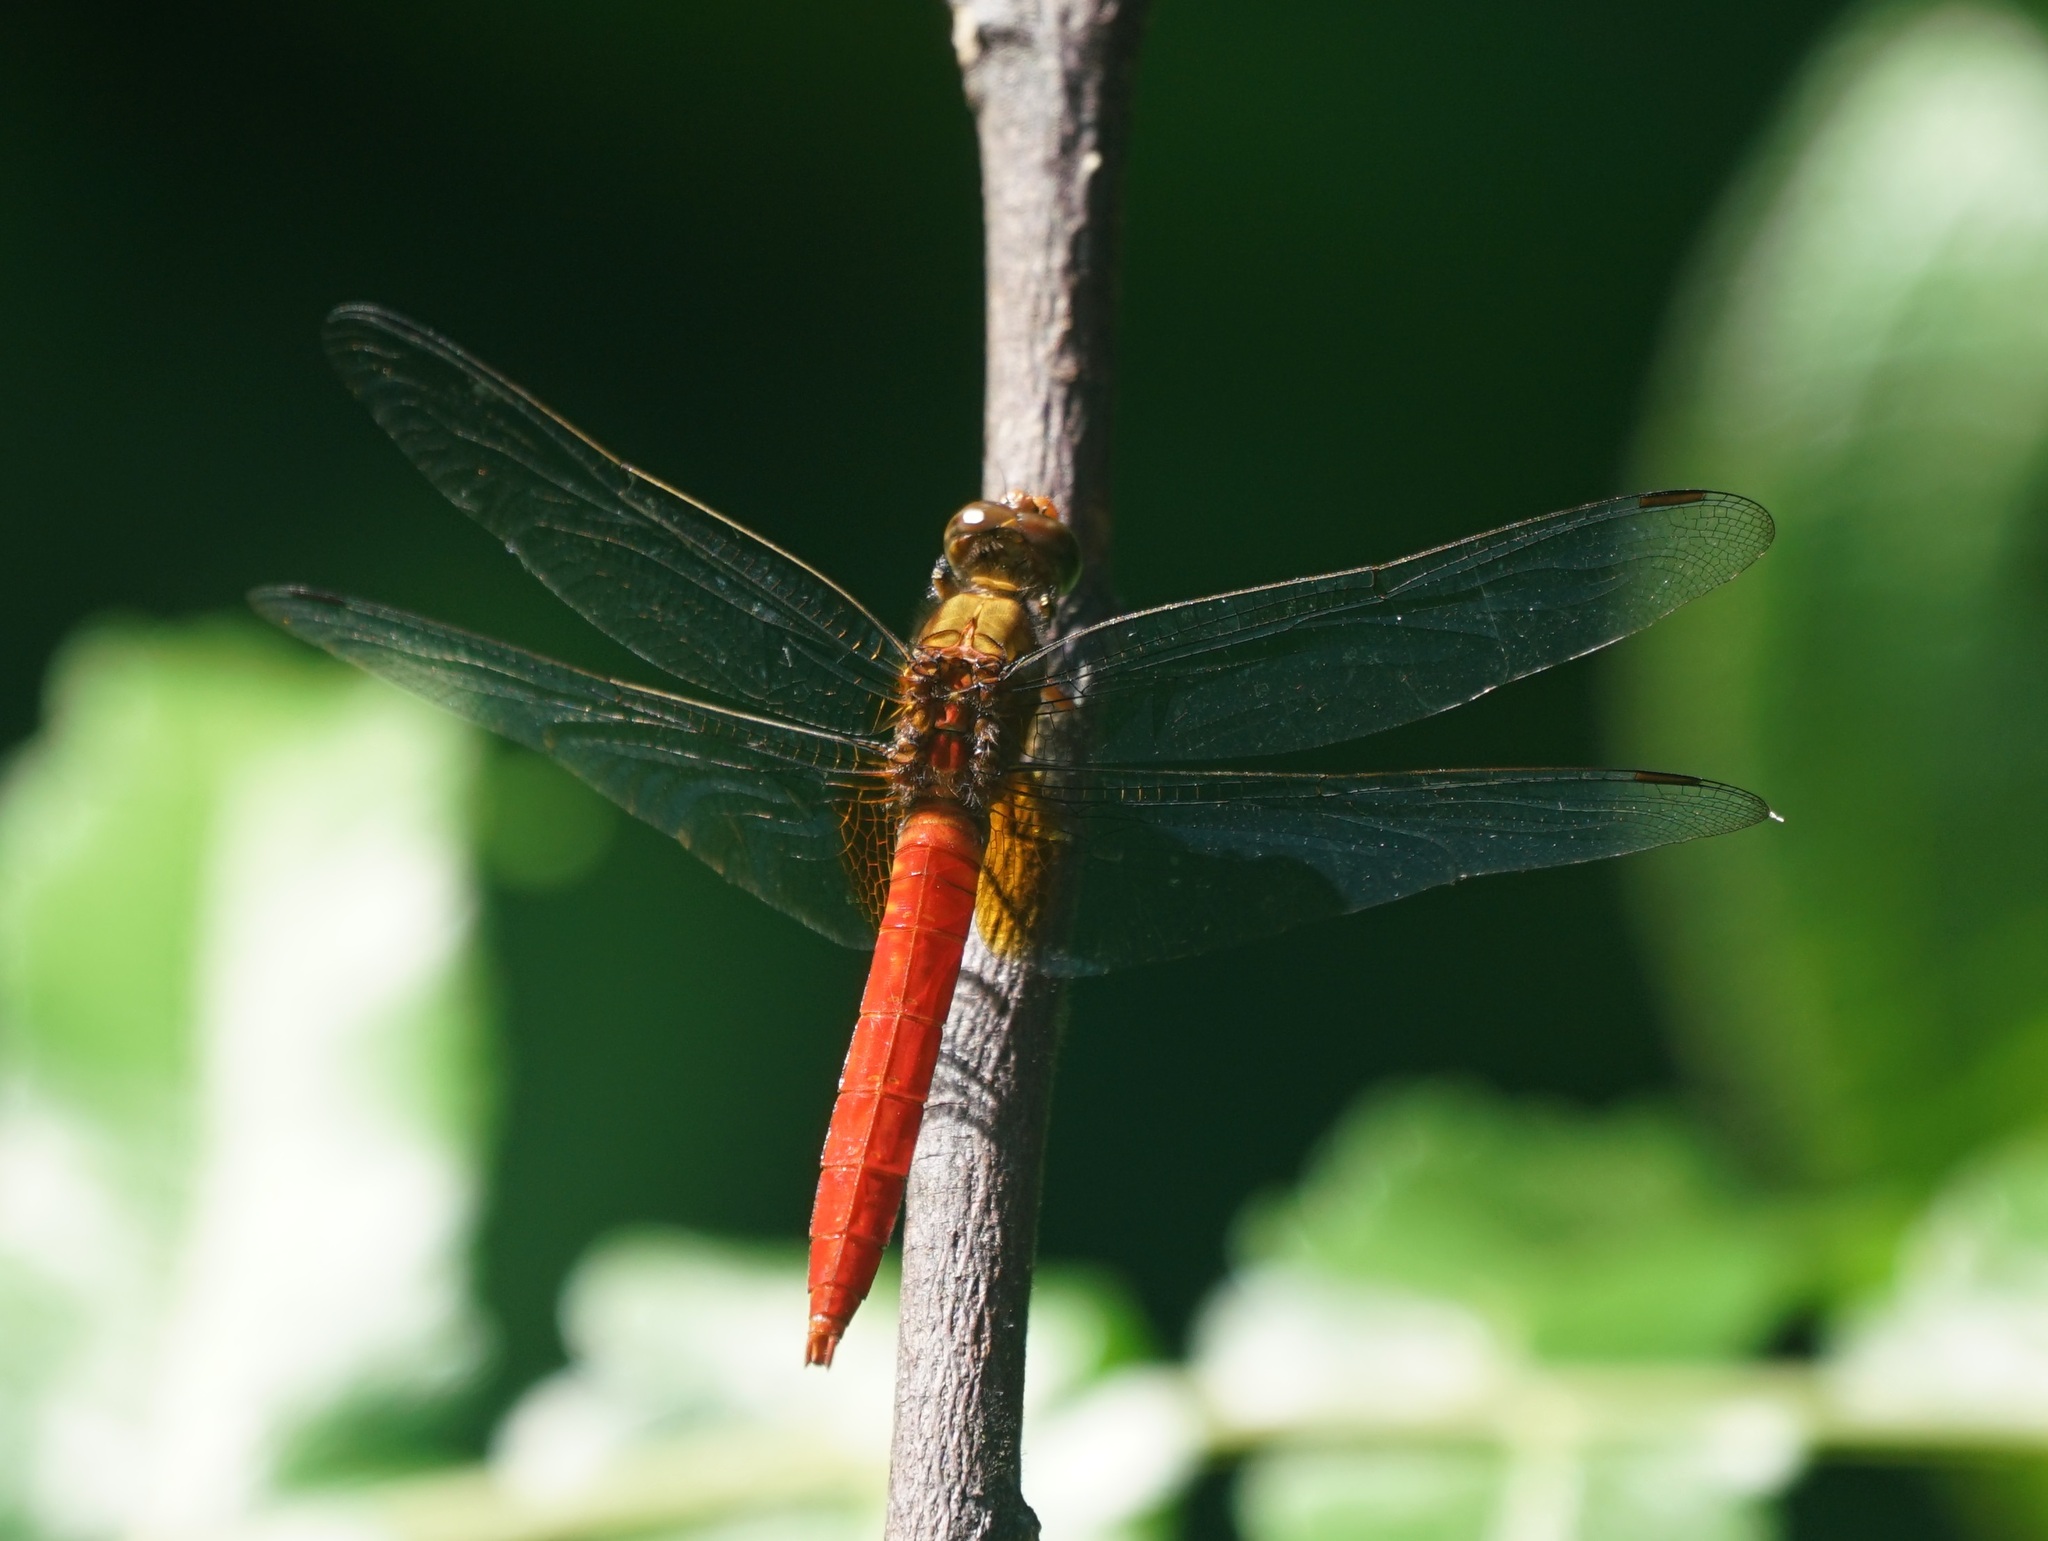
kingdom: Animalia
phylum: Arthropoda
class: Insecta
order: Odonata
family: Libellulidae
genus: Orthetrum
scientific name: Orthetrum testaceum
